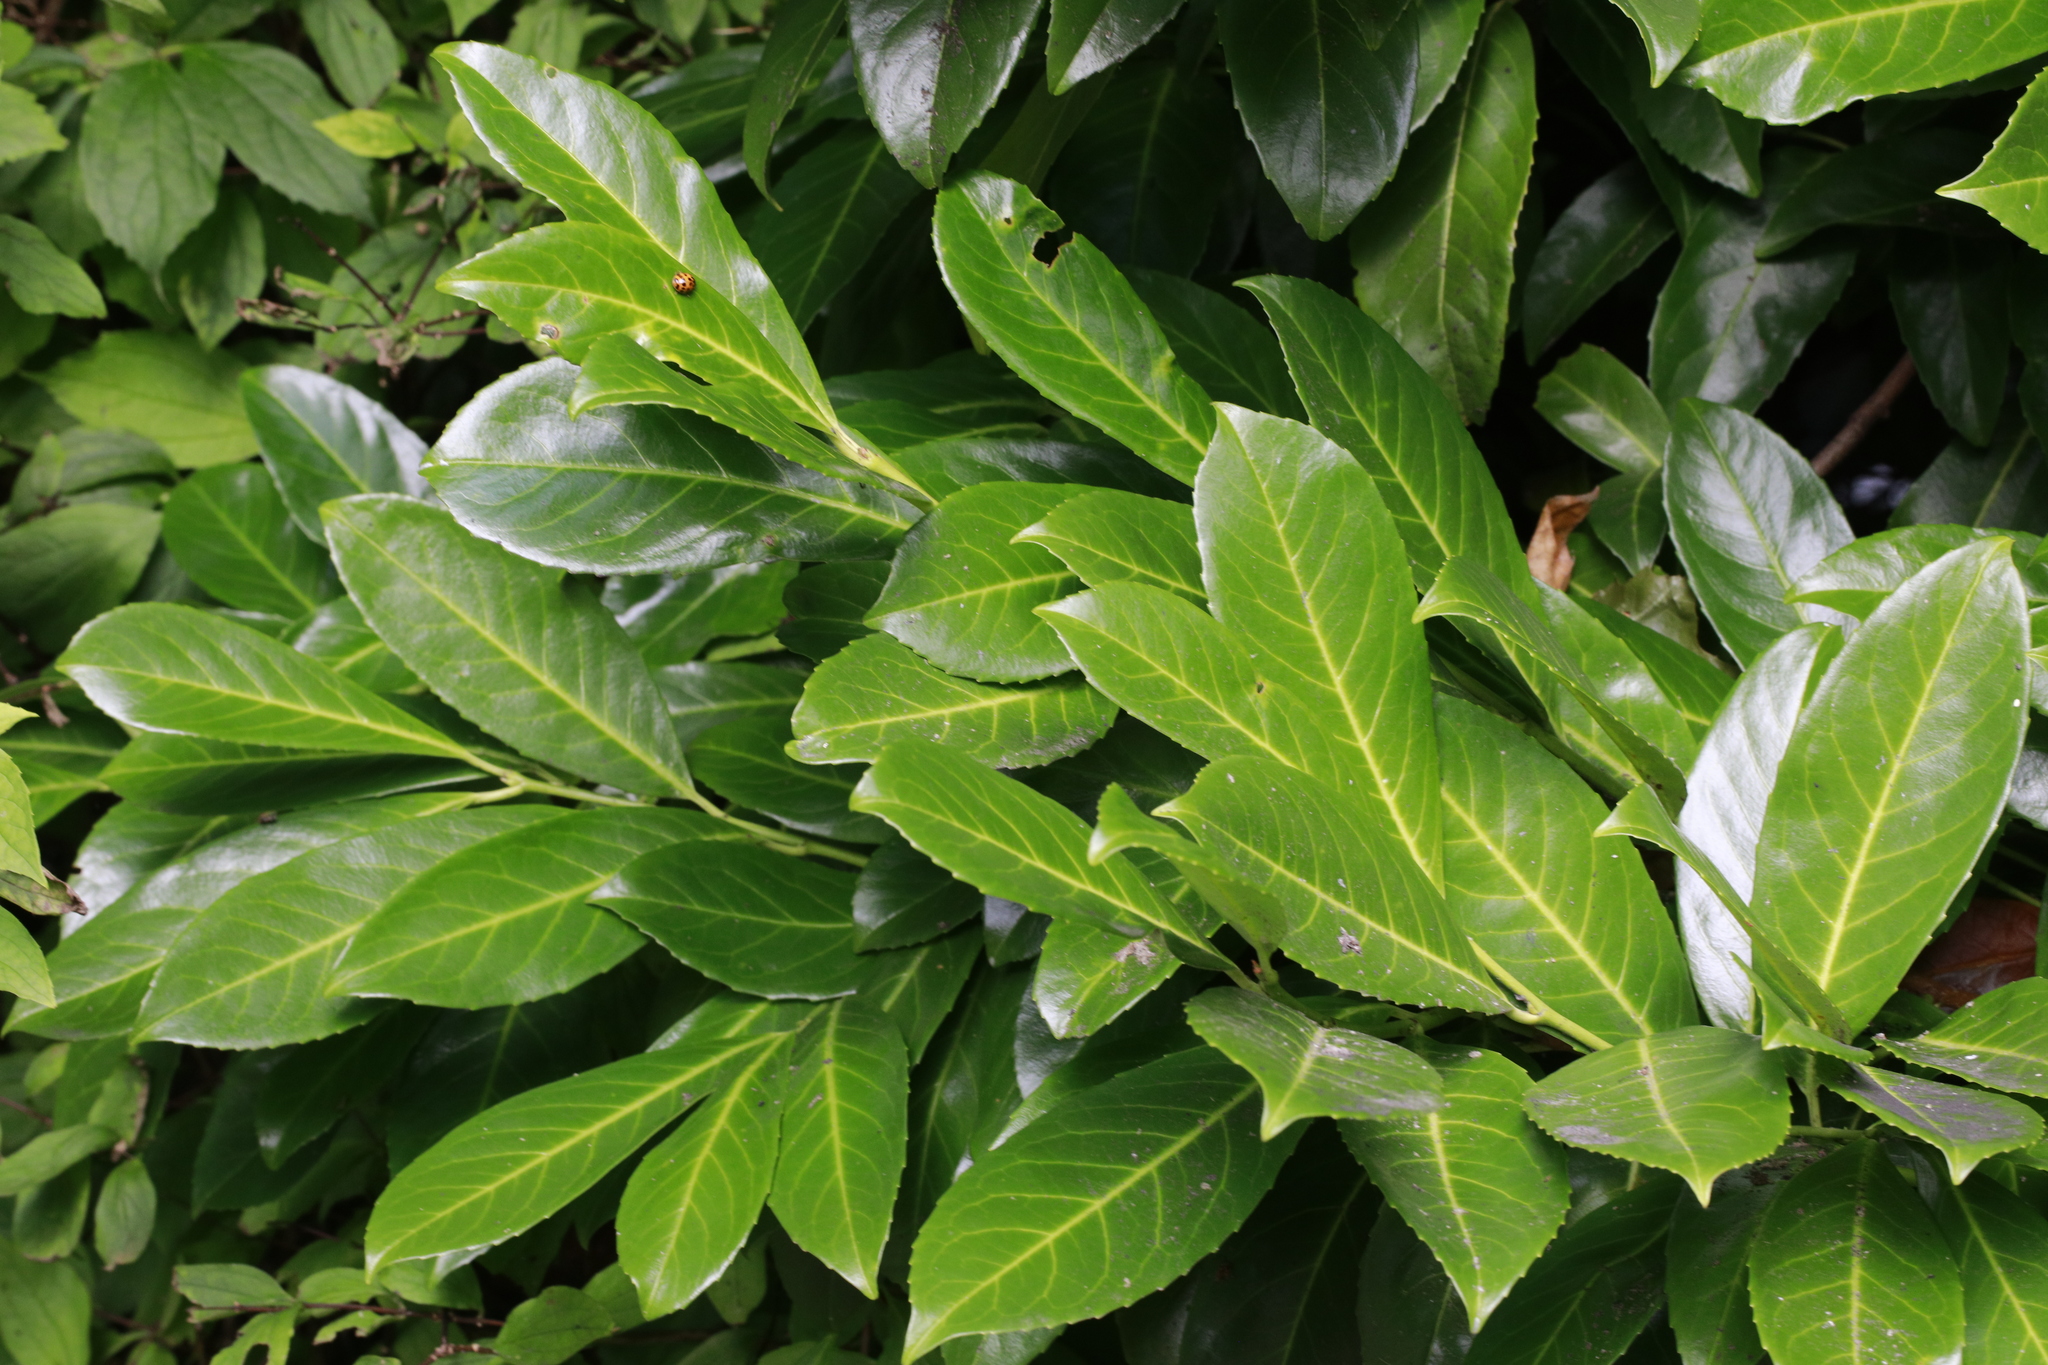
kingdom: Plantae
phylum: Tracheophyta
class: Magnoliopsida
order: Rosales
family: Rosaceae
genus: Prunus
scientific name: Prunus laurocerasus
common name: Cherry laurel
